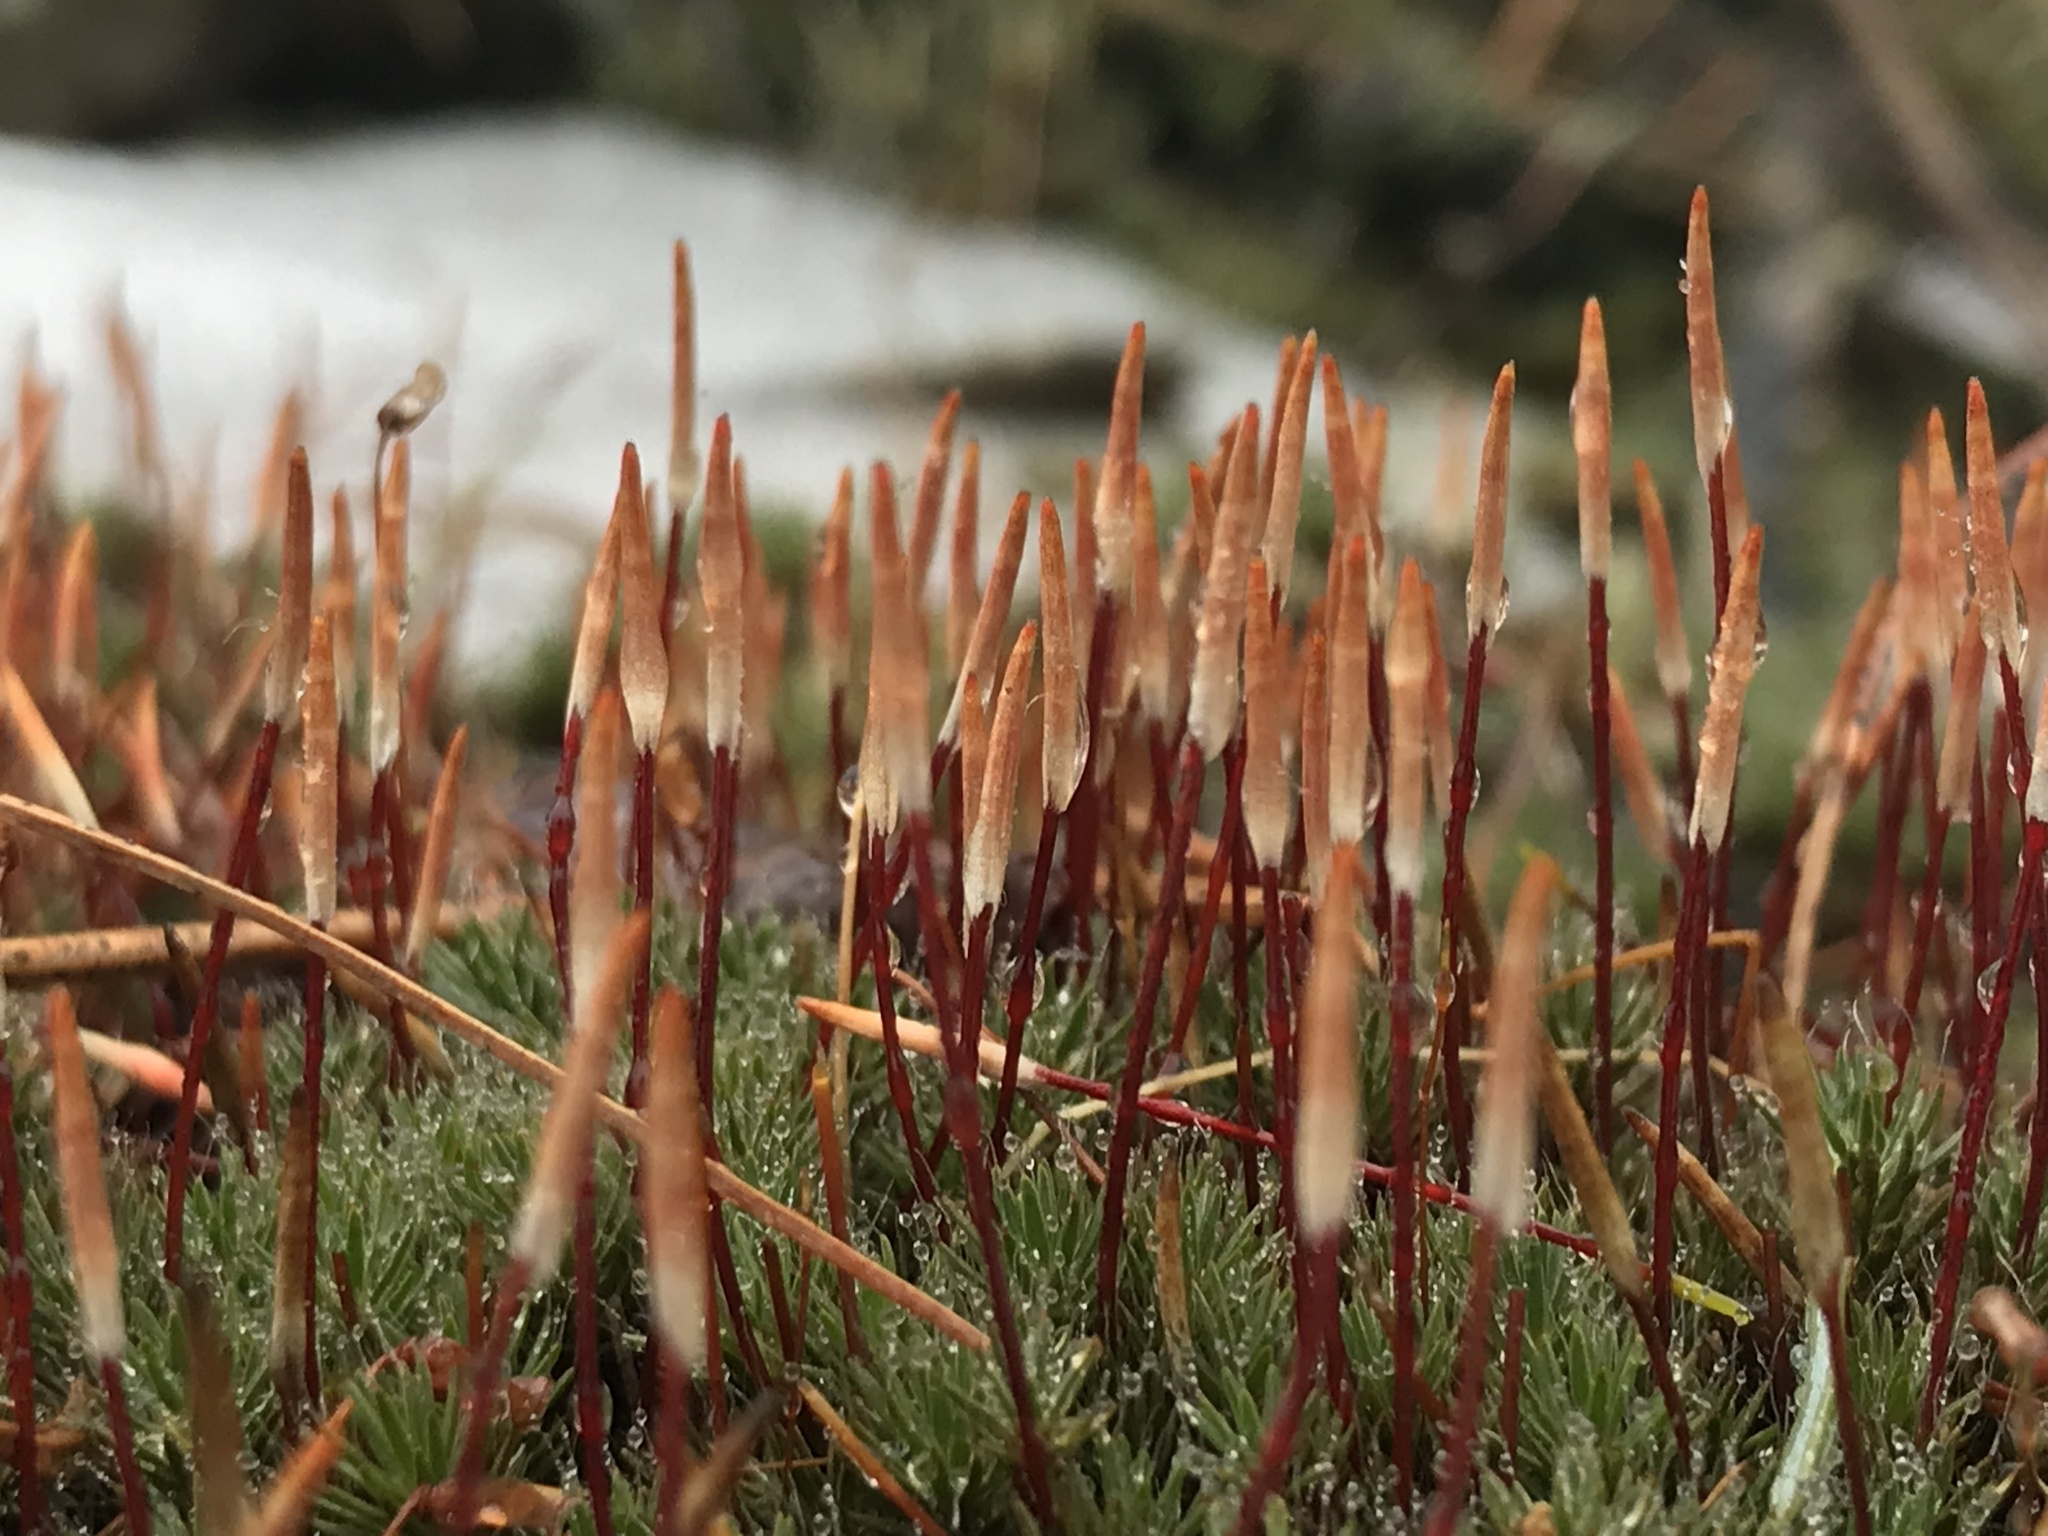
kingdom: Plantae
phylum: Bryophyta
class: Polytrichopsida
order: Polytrichales
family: Polytrichaceae
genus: Polytrichum
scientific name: Polytrichum piliferum
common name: Bristly haircap
